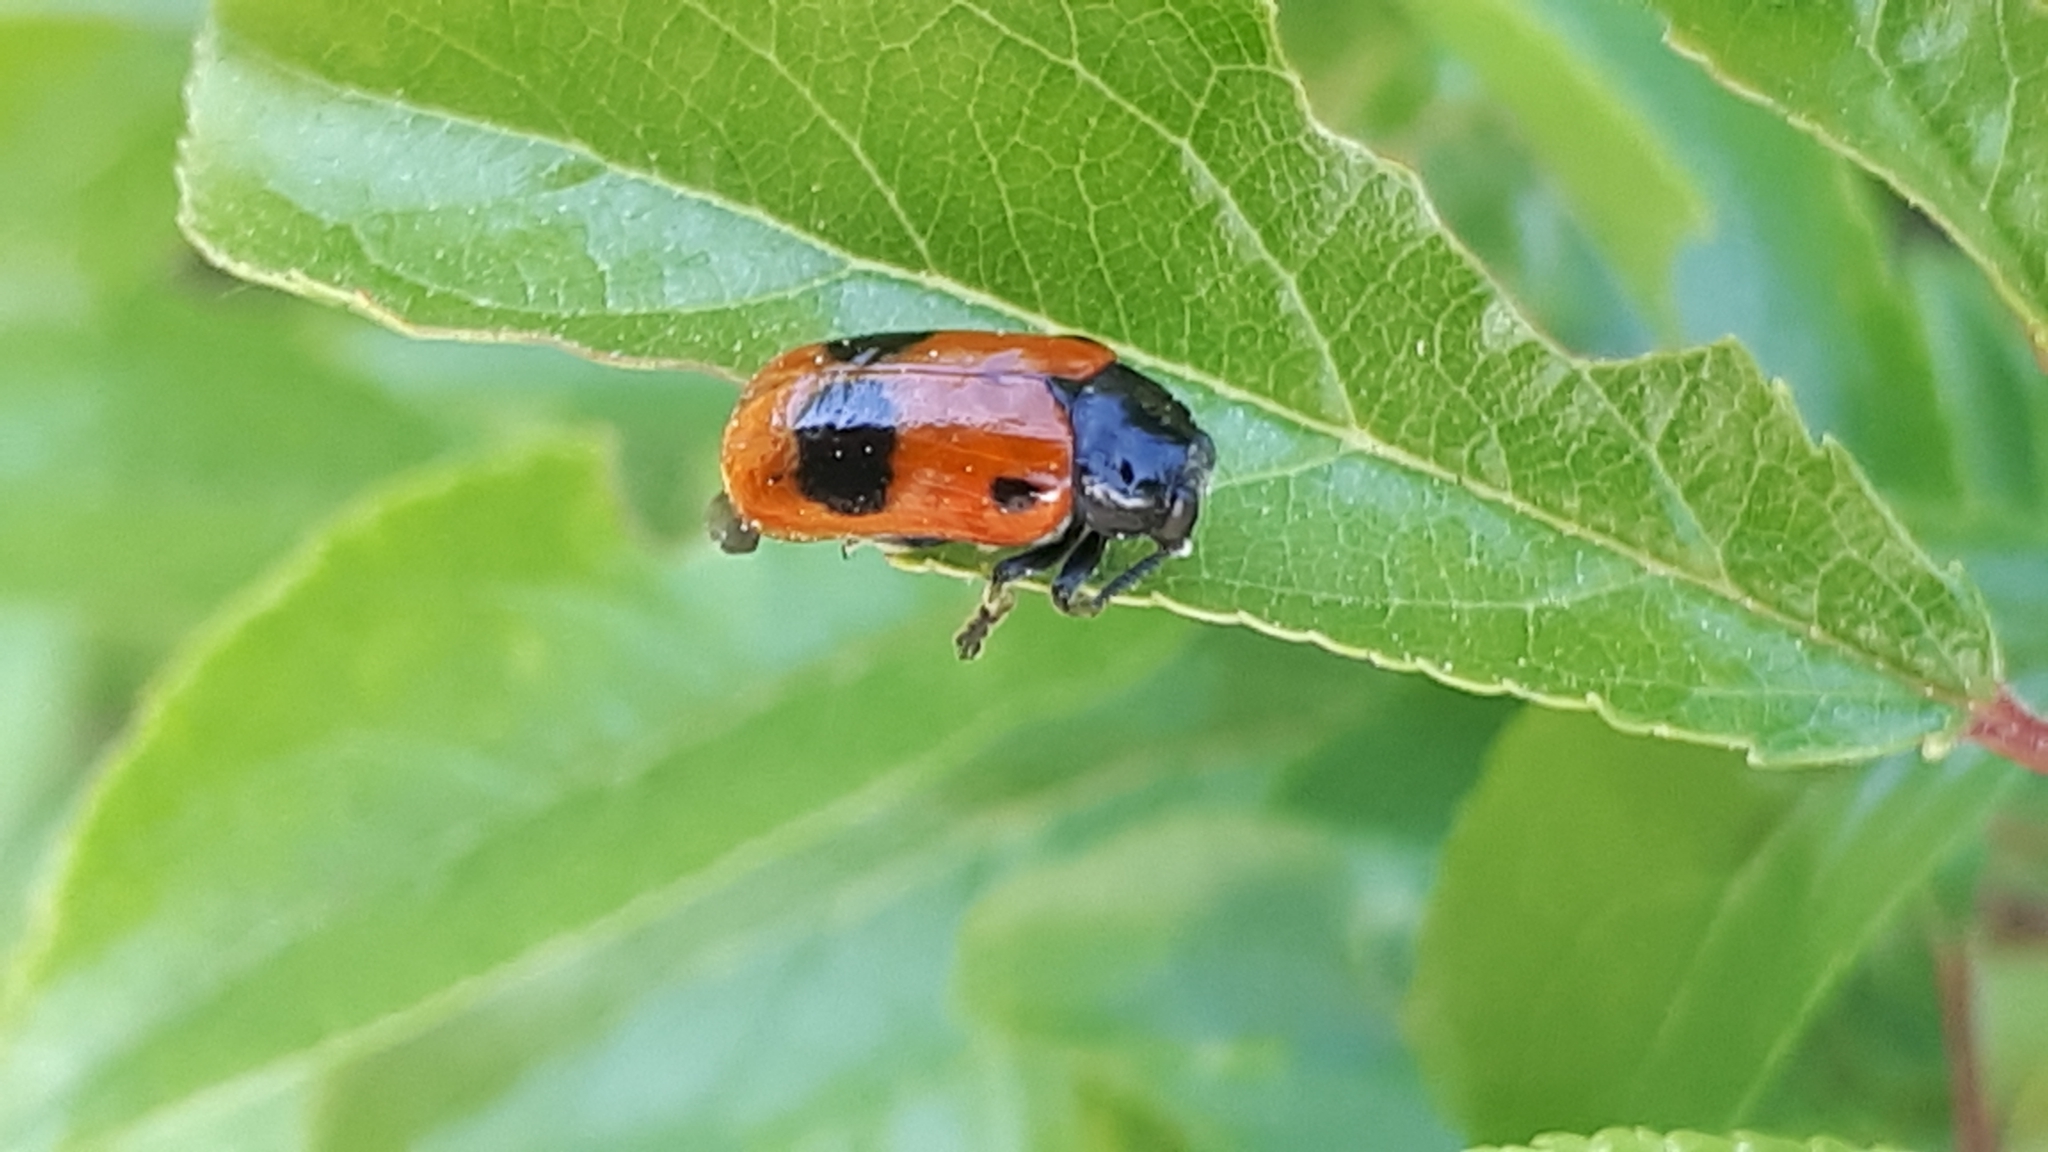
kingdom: Animalia
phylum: Arthropoda
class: Insecta
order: Coleoptera
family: Chrysomelidae
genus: Clytra
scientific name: Clytra laeviuscula
